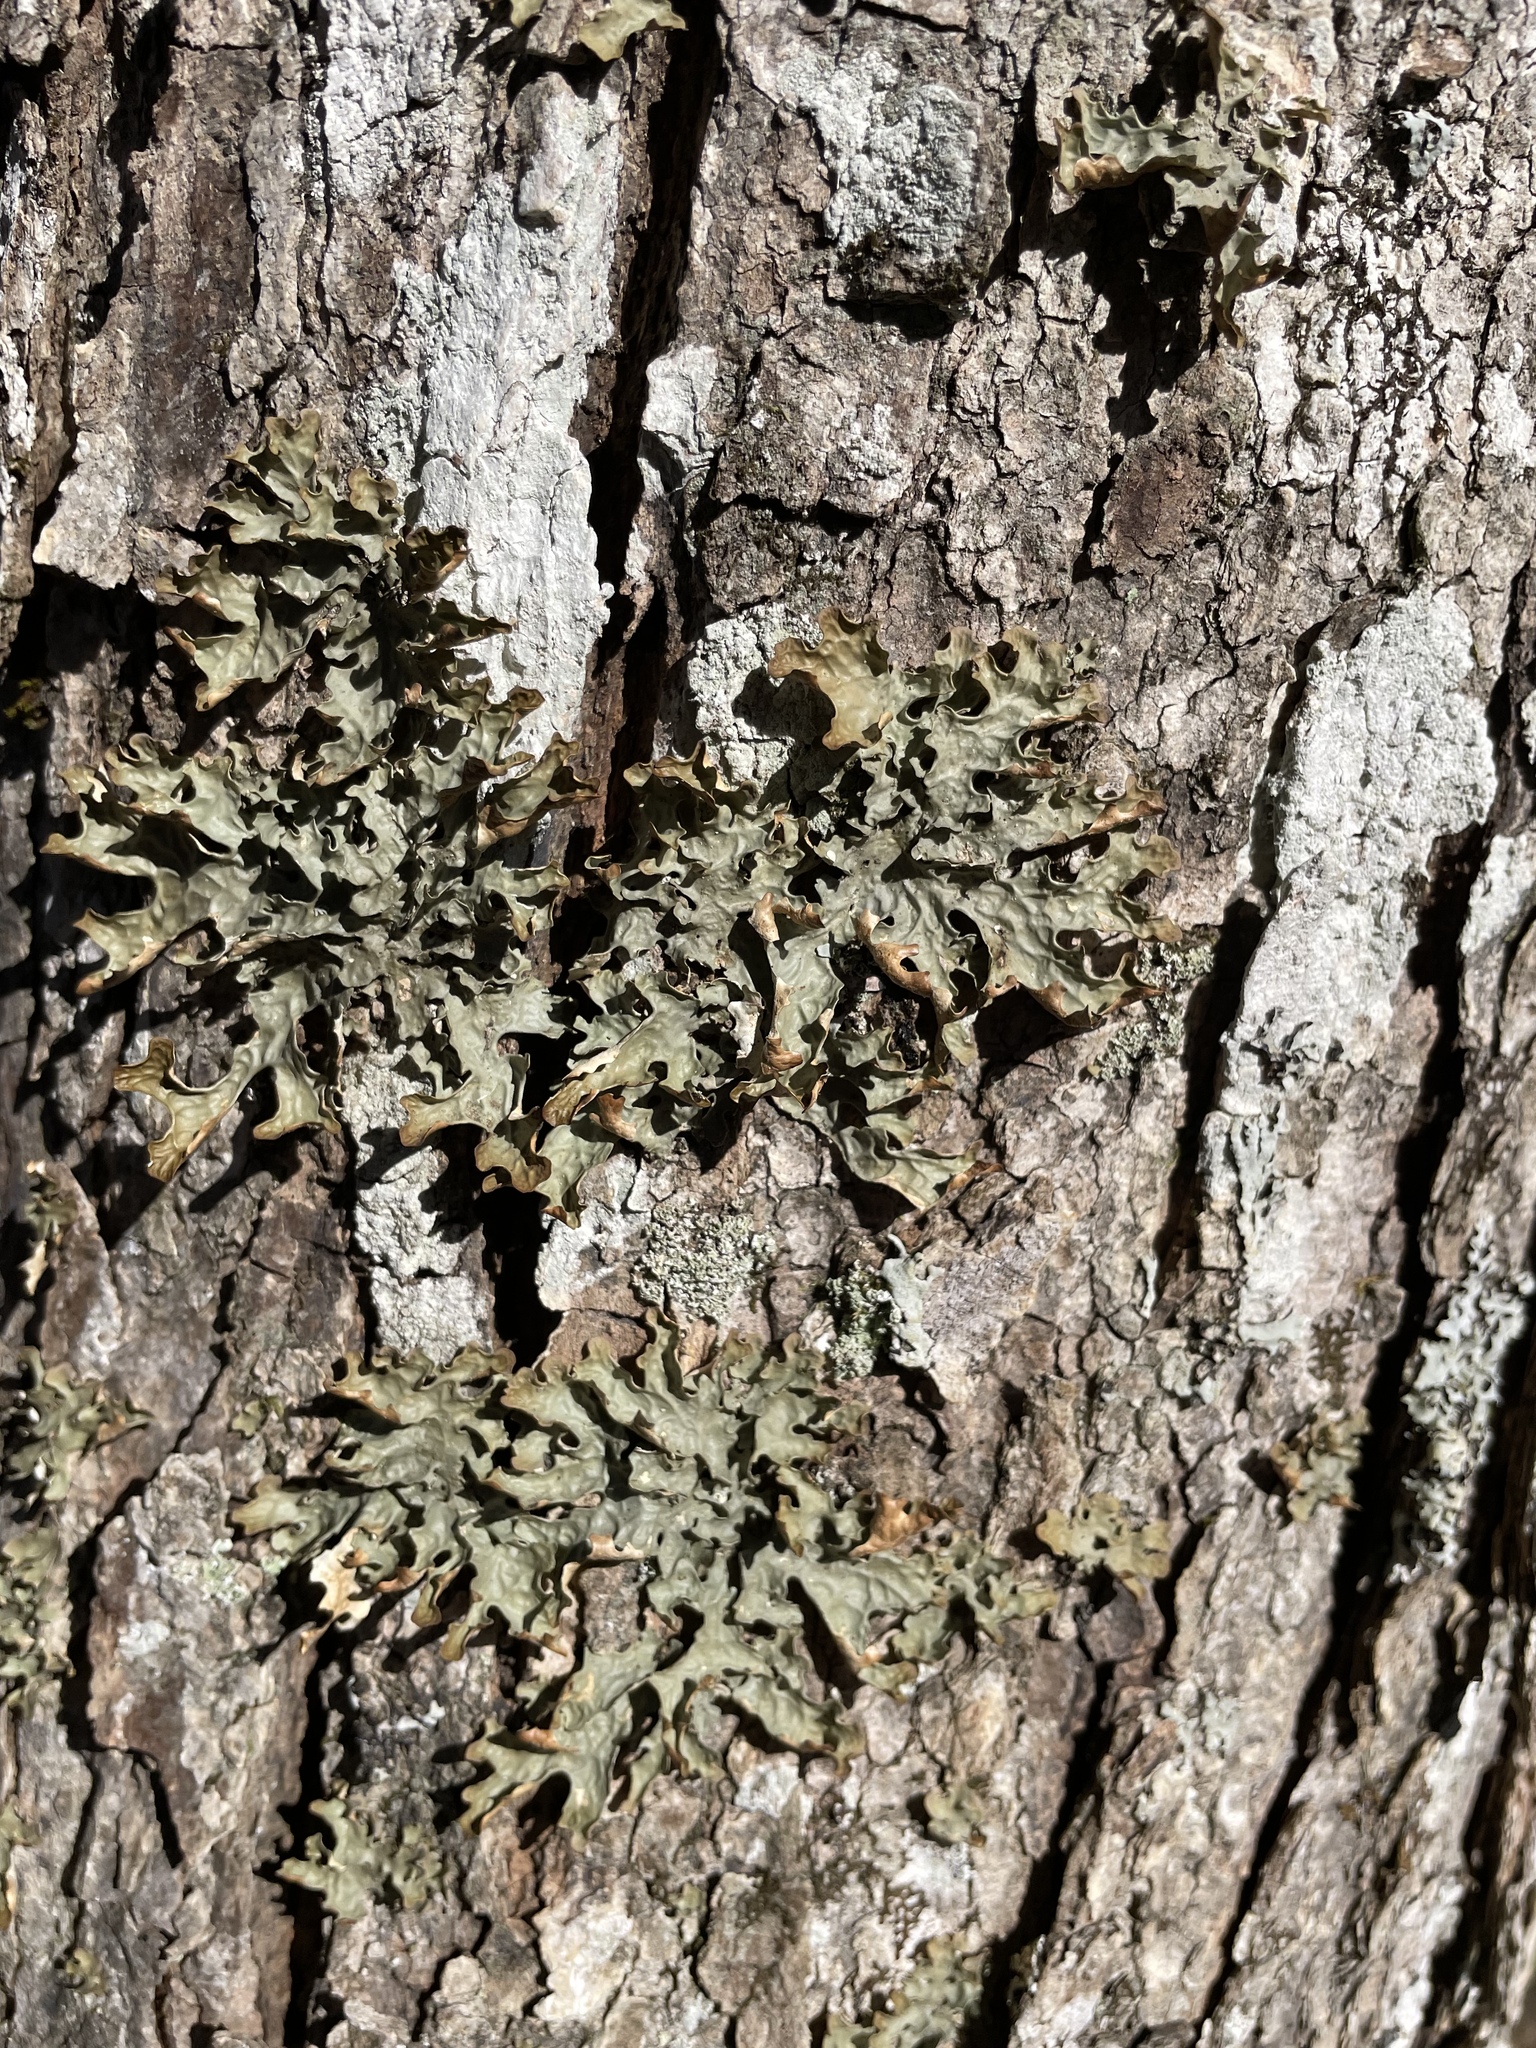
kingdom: Fungi
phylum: Ascomycota
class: Lecanoromycetes
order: Peltigerales
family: Lobariaceae
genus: Lobaria
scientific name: Lobaria pulmonaria
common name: Lungwort
